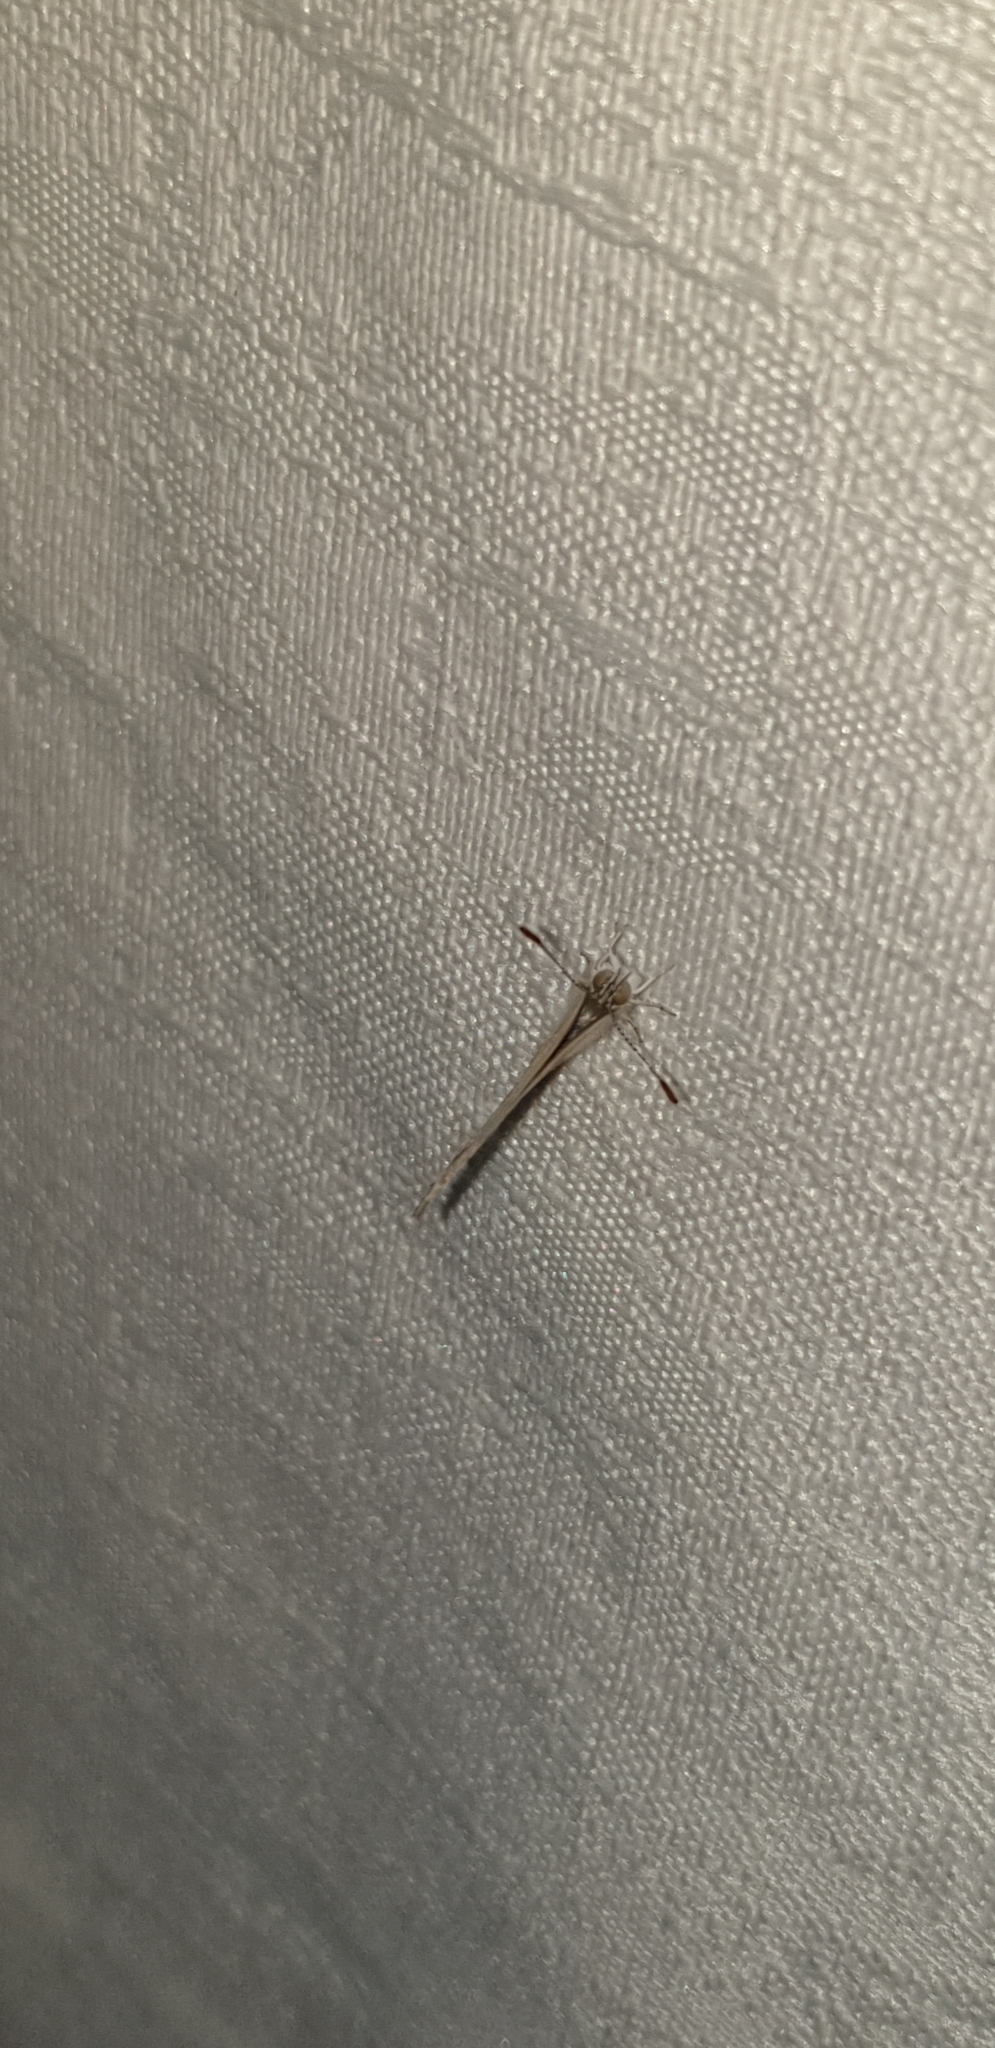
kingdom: Animalia
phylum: Arthropoda
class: Insecta
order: Lepidoptera
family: Lycaenidae
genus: Zizina
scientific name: Zizina labradus
